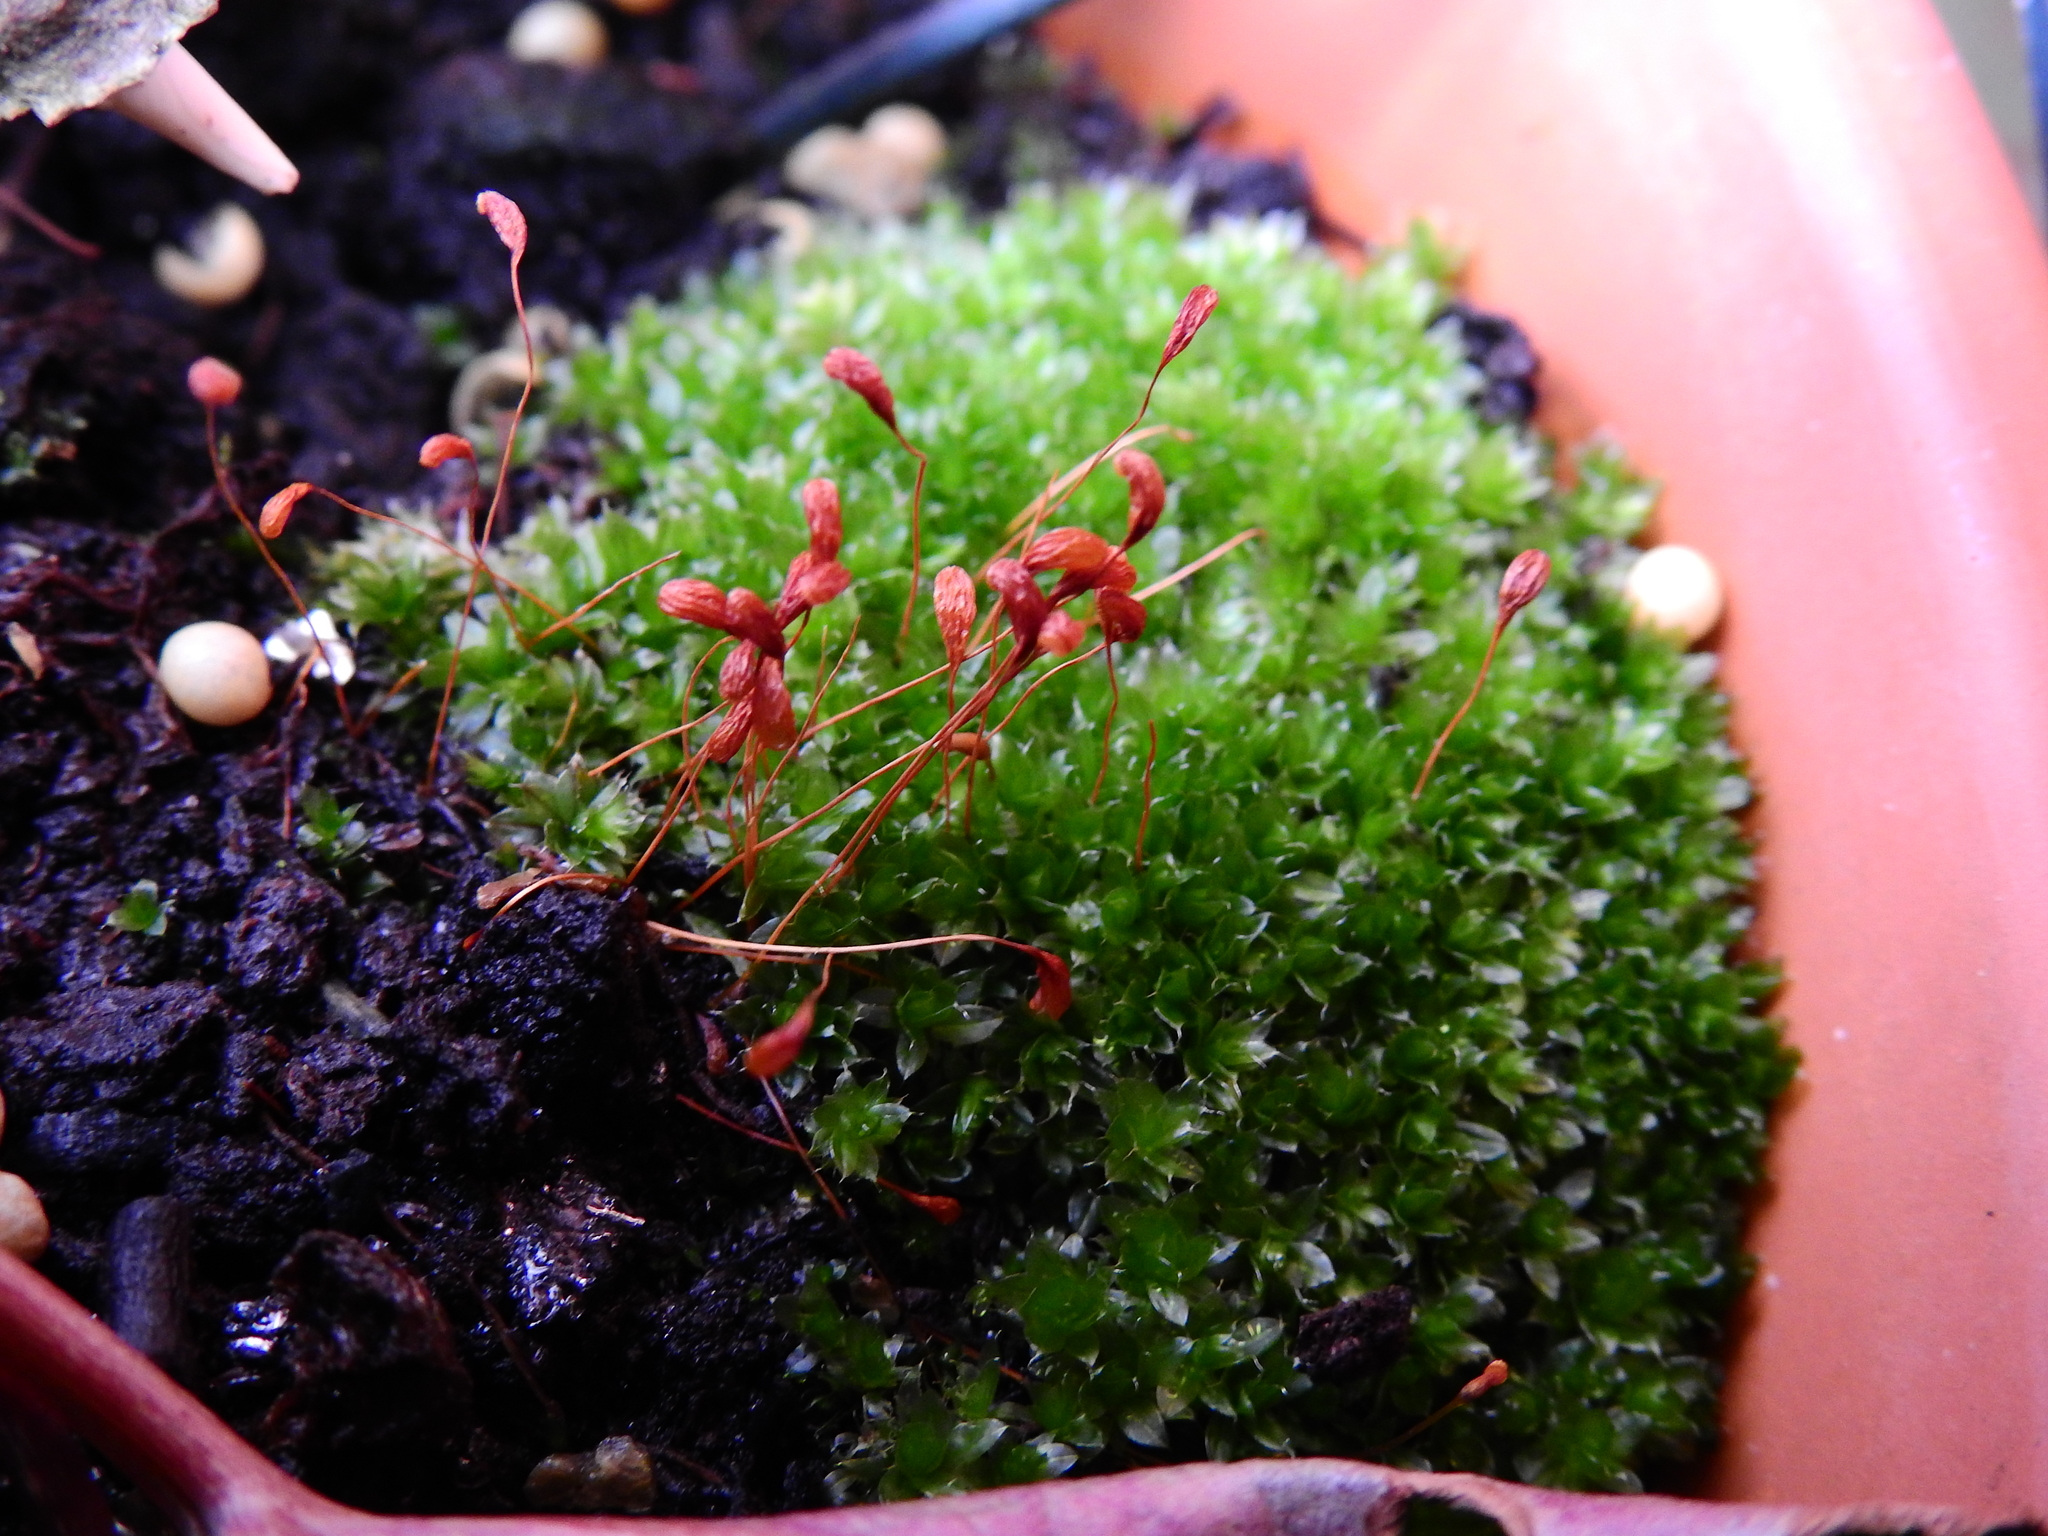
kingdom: Plantae
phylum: Bryophyta
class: Bryopsida
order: Bryales
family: Bryaceae
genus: Rosulabryum
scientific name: Rosulabryum capillare
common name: Capillary thread-moss
